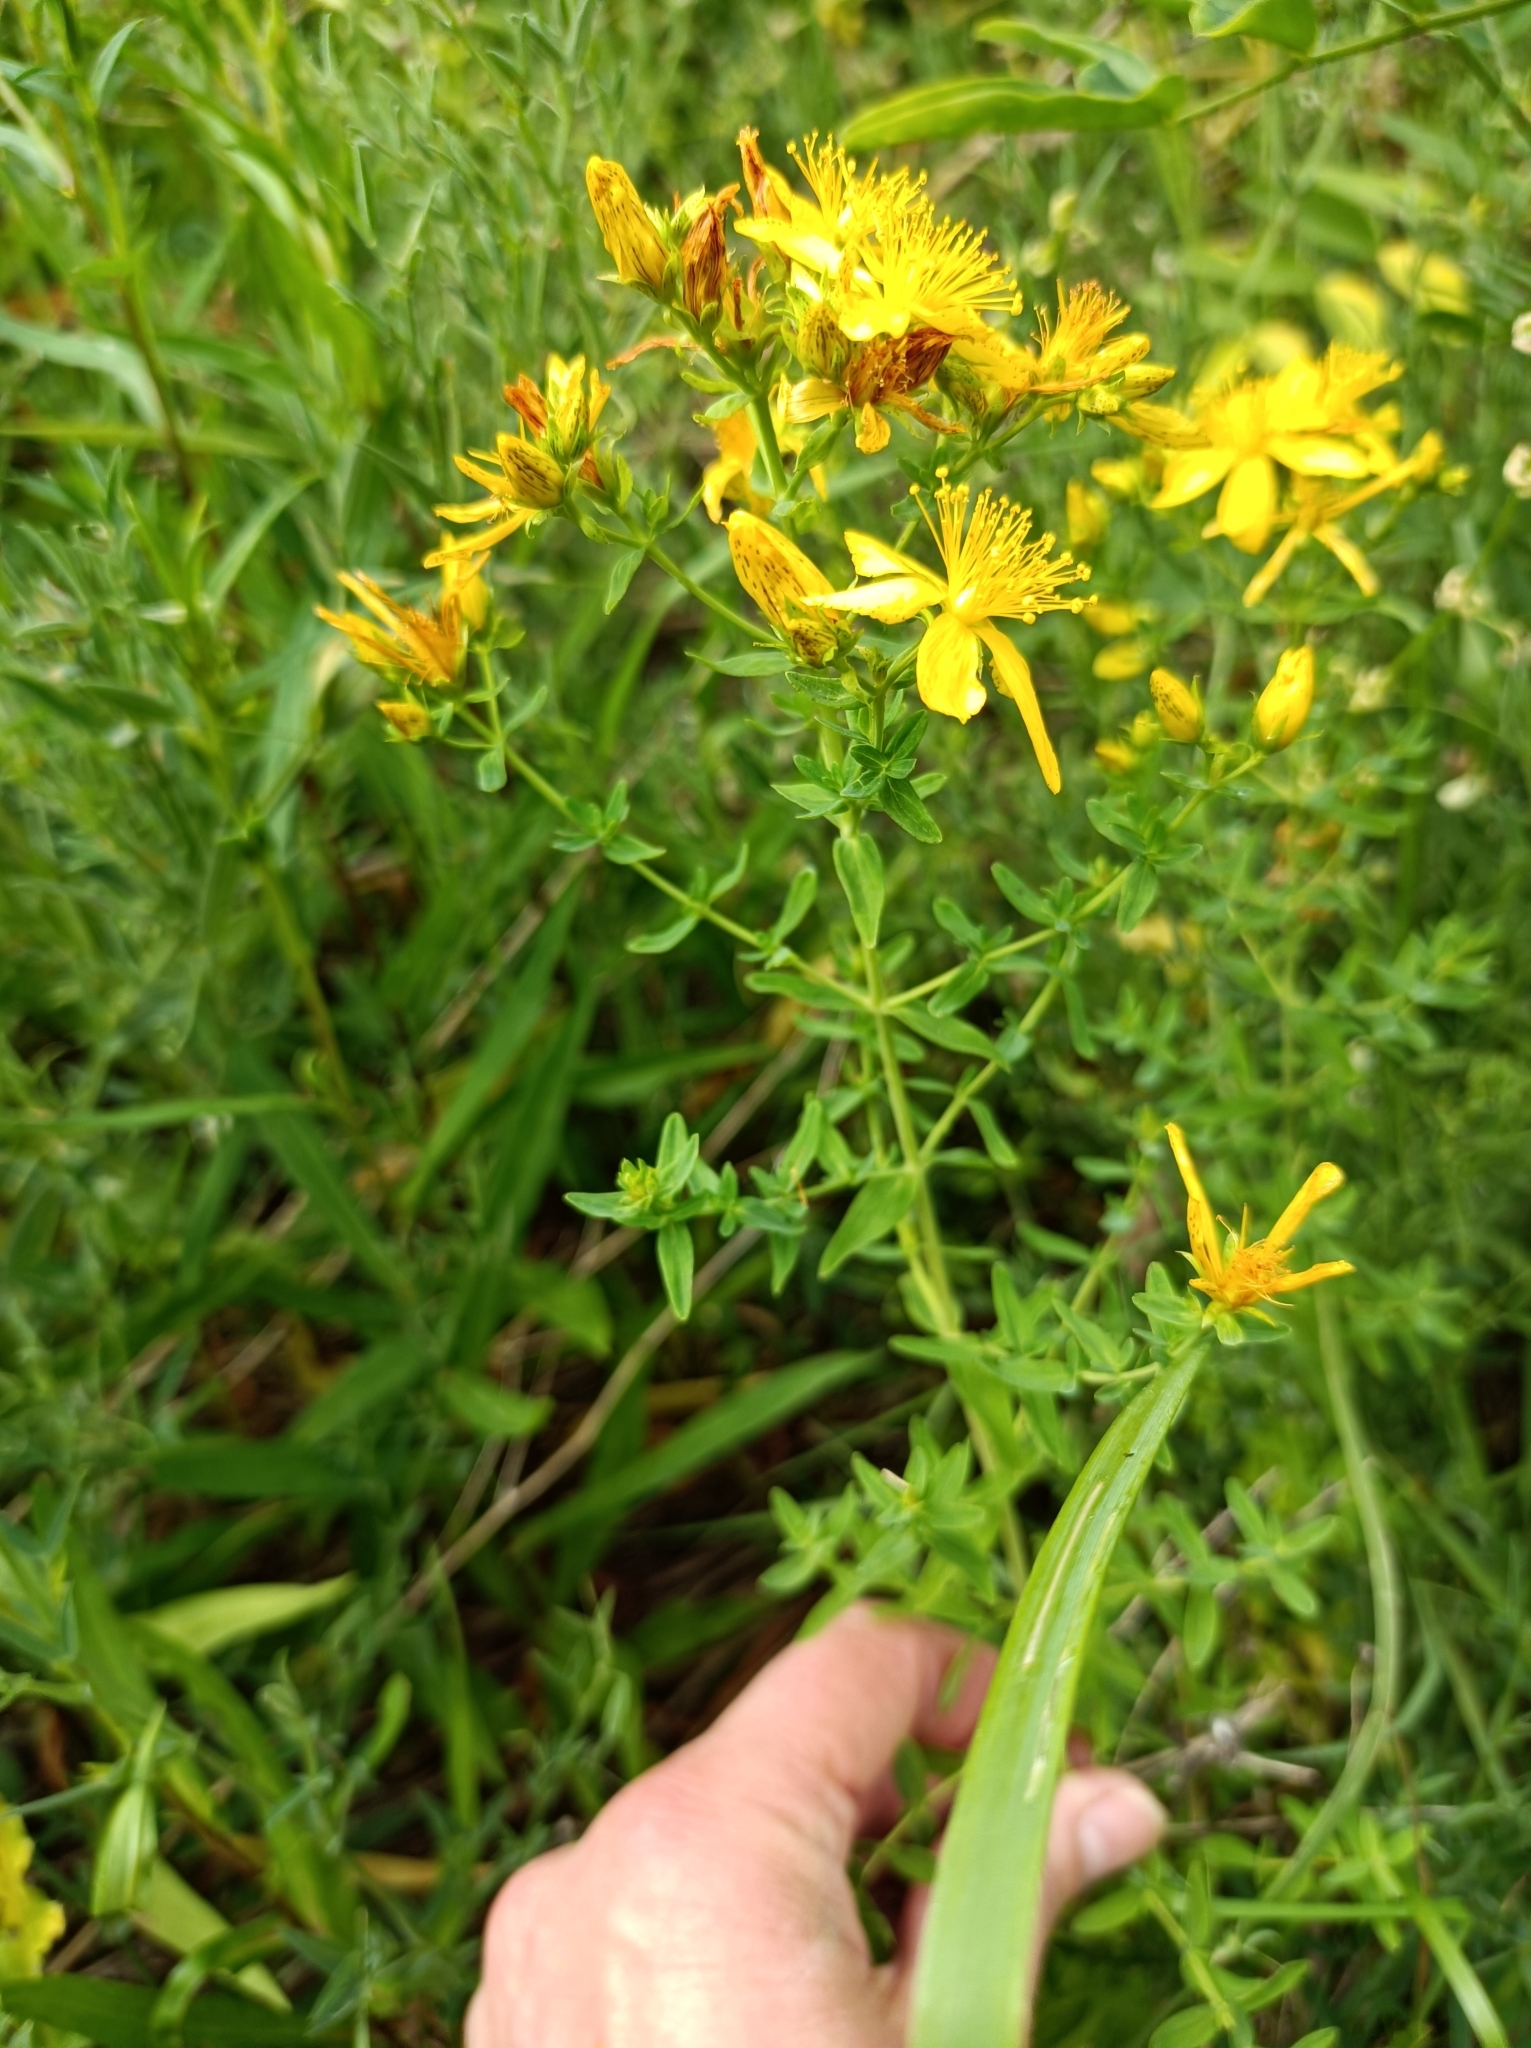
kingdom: Plantae
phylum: Tracheophyta
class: Magnoliopsida
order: Malpighiales
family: Hypericaceae
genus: Hypericum
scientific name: Hypericum perforatum
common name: Common st. johnswort
